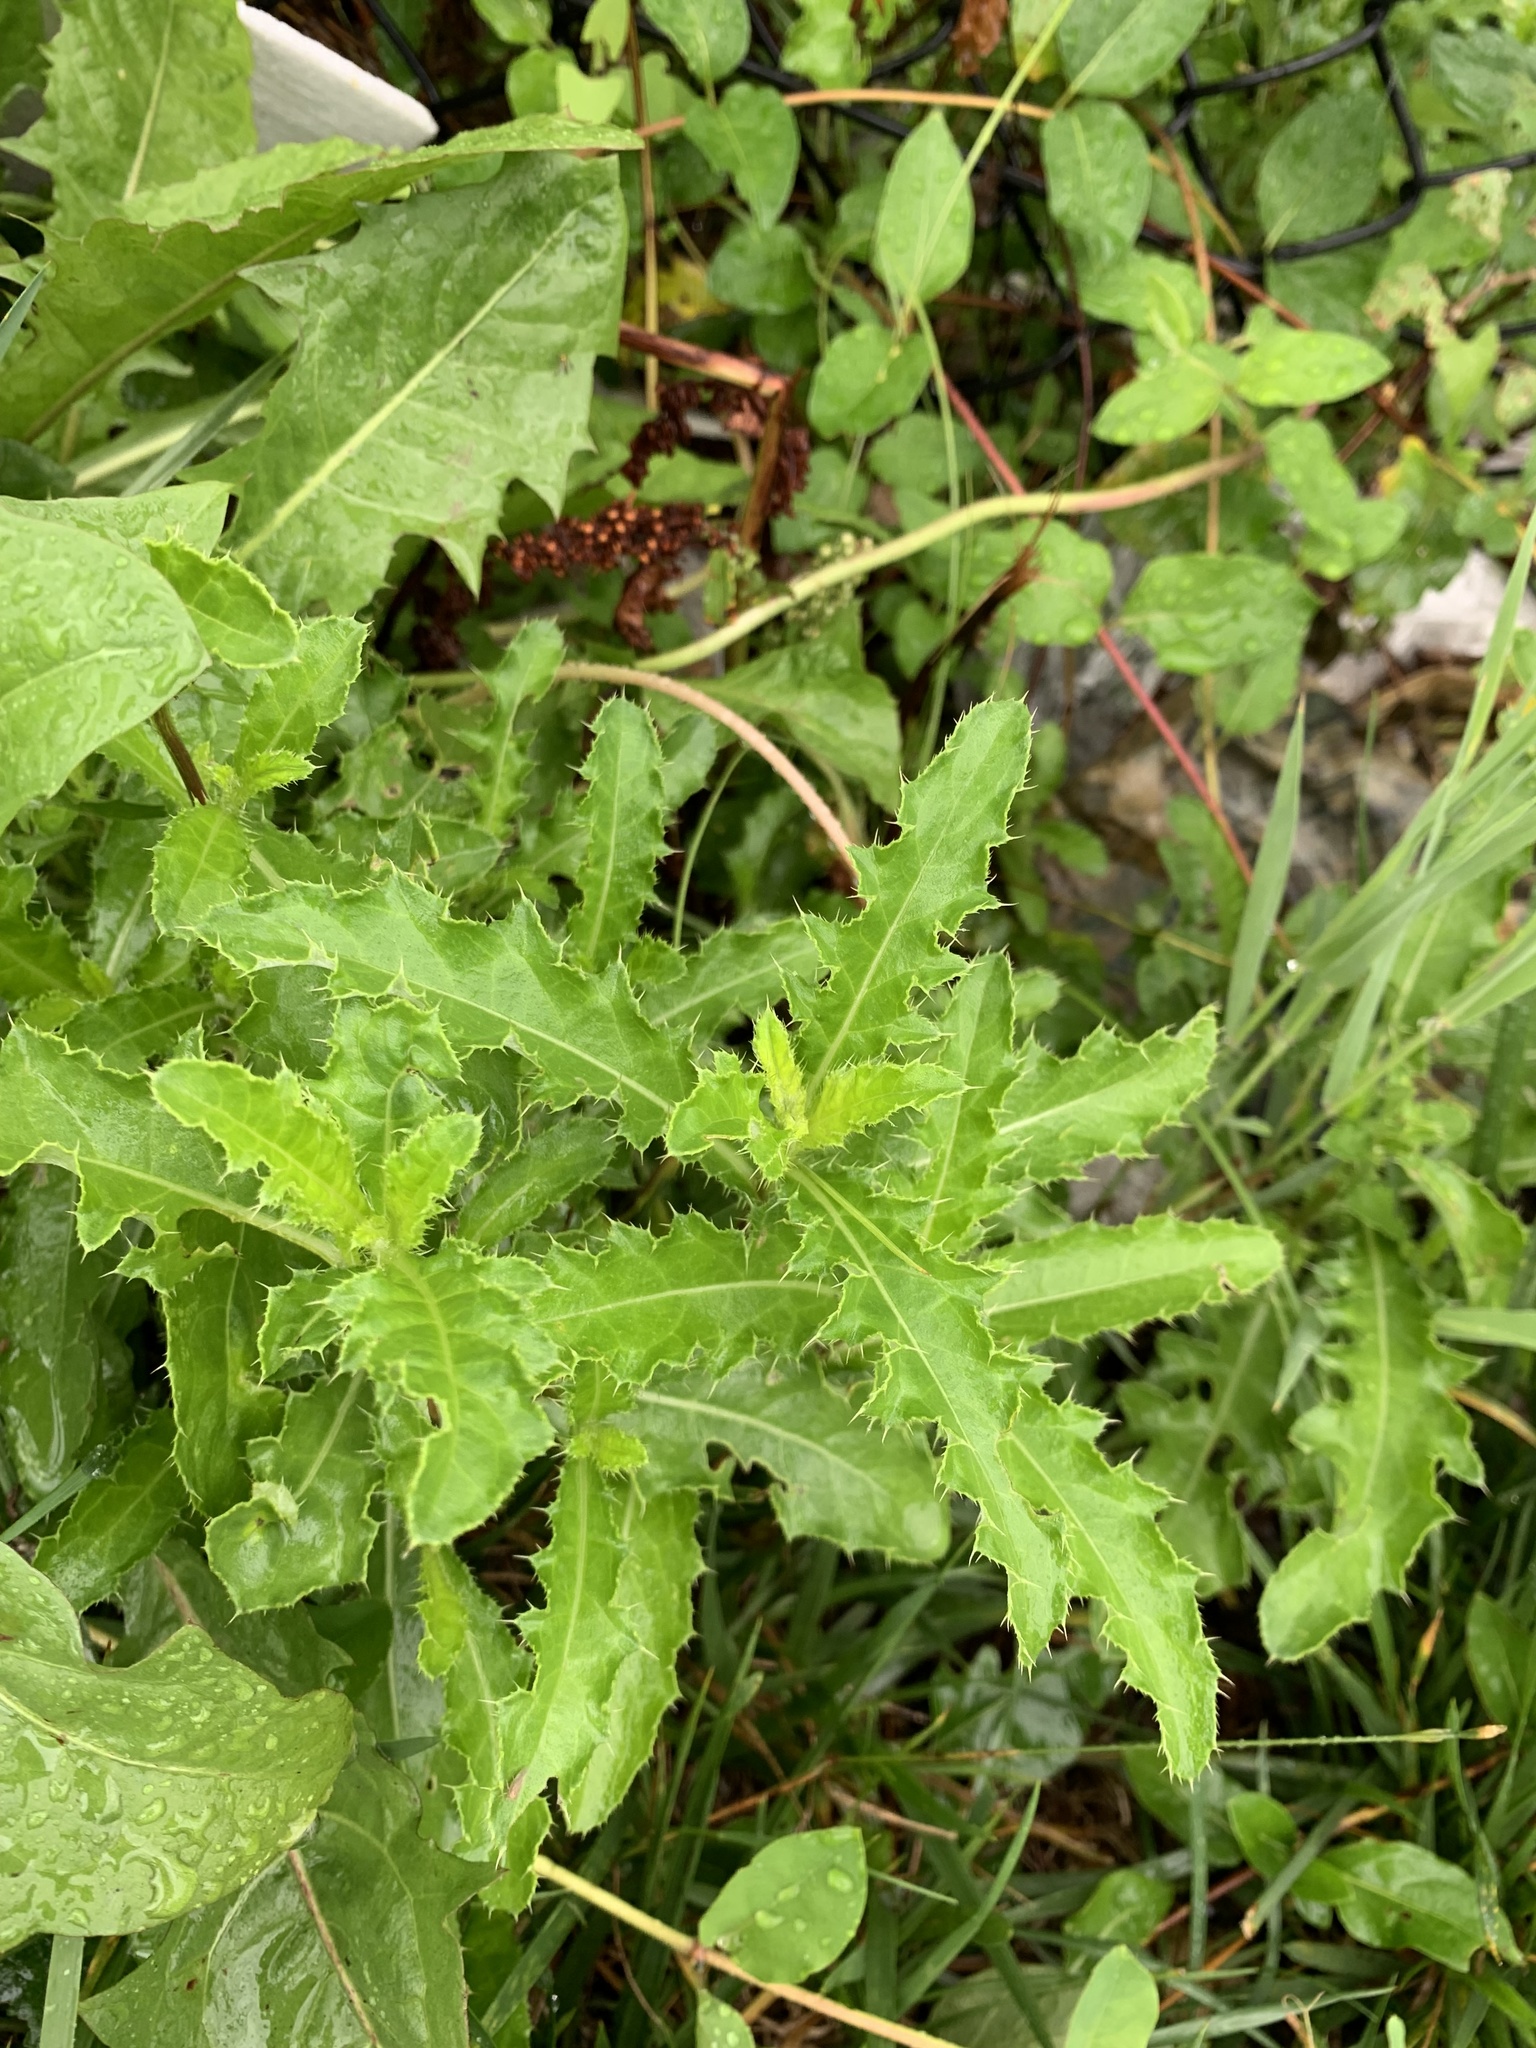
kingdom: Plantae
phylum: Tracheophyta
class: Magnoliopsida
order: Asterales
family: Asteraceae
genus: Cirsium
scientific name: Cirsium arvense
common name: Creeping thistle
